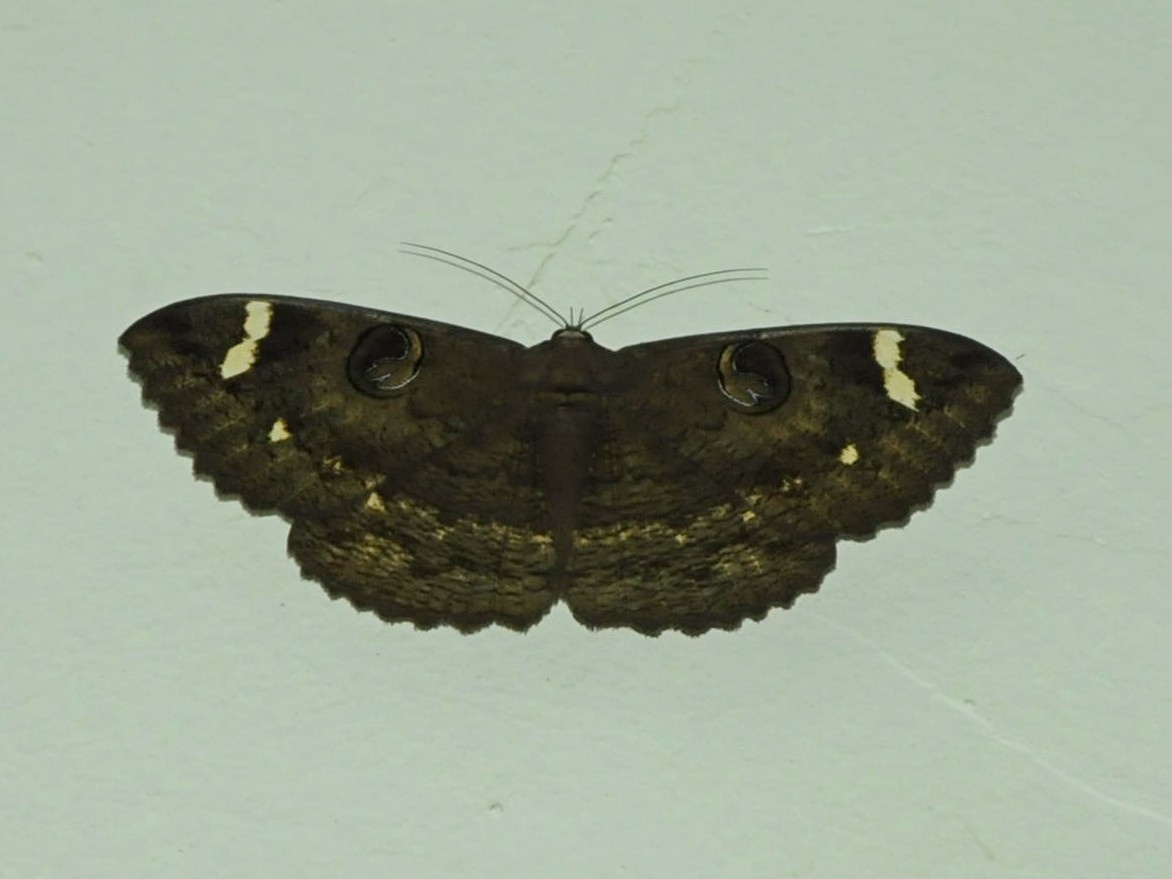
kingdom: Animalia
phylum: Arthropoda
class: Insecta
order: Lepidoptera
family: Erebidae
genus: Erebus
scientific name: Erebus hieroglyphica
